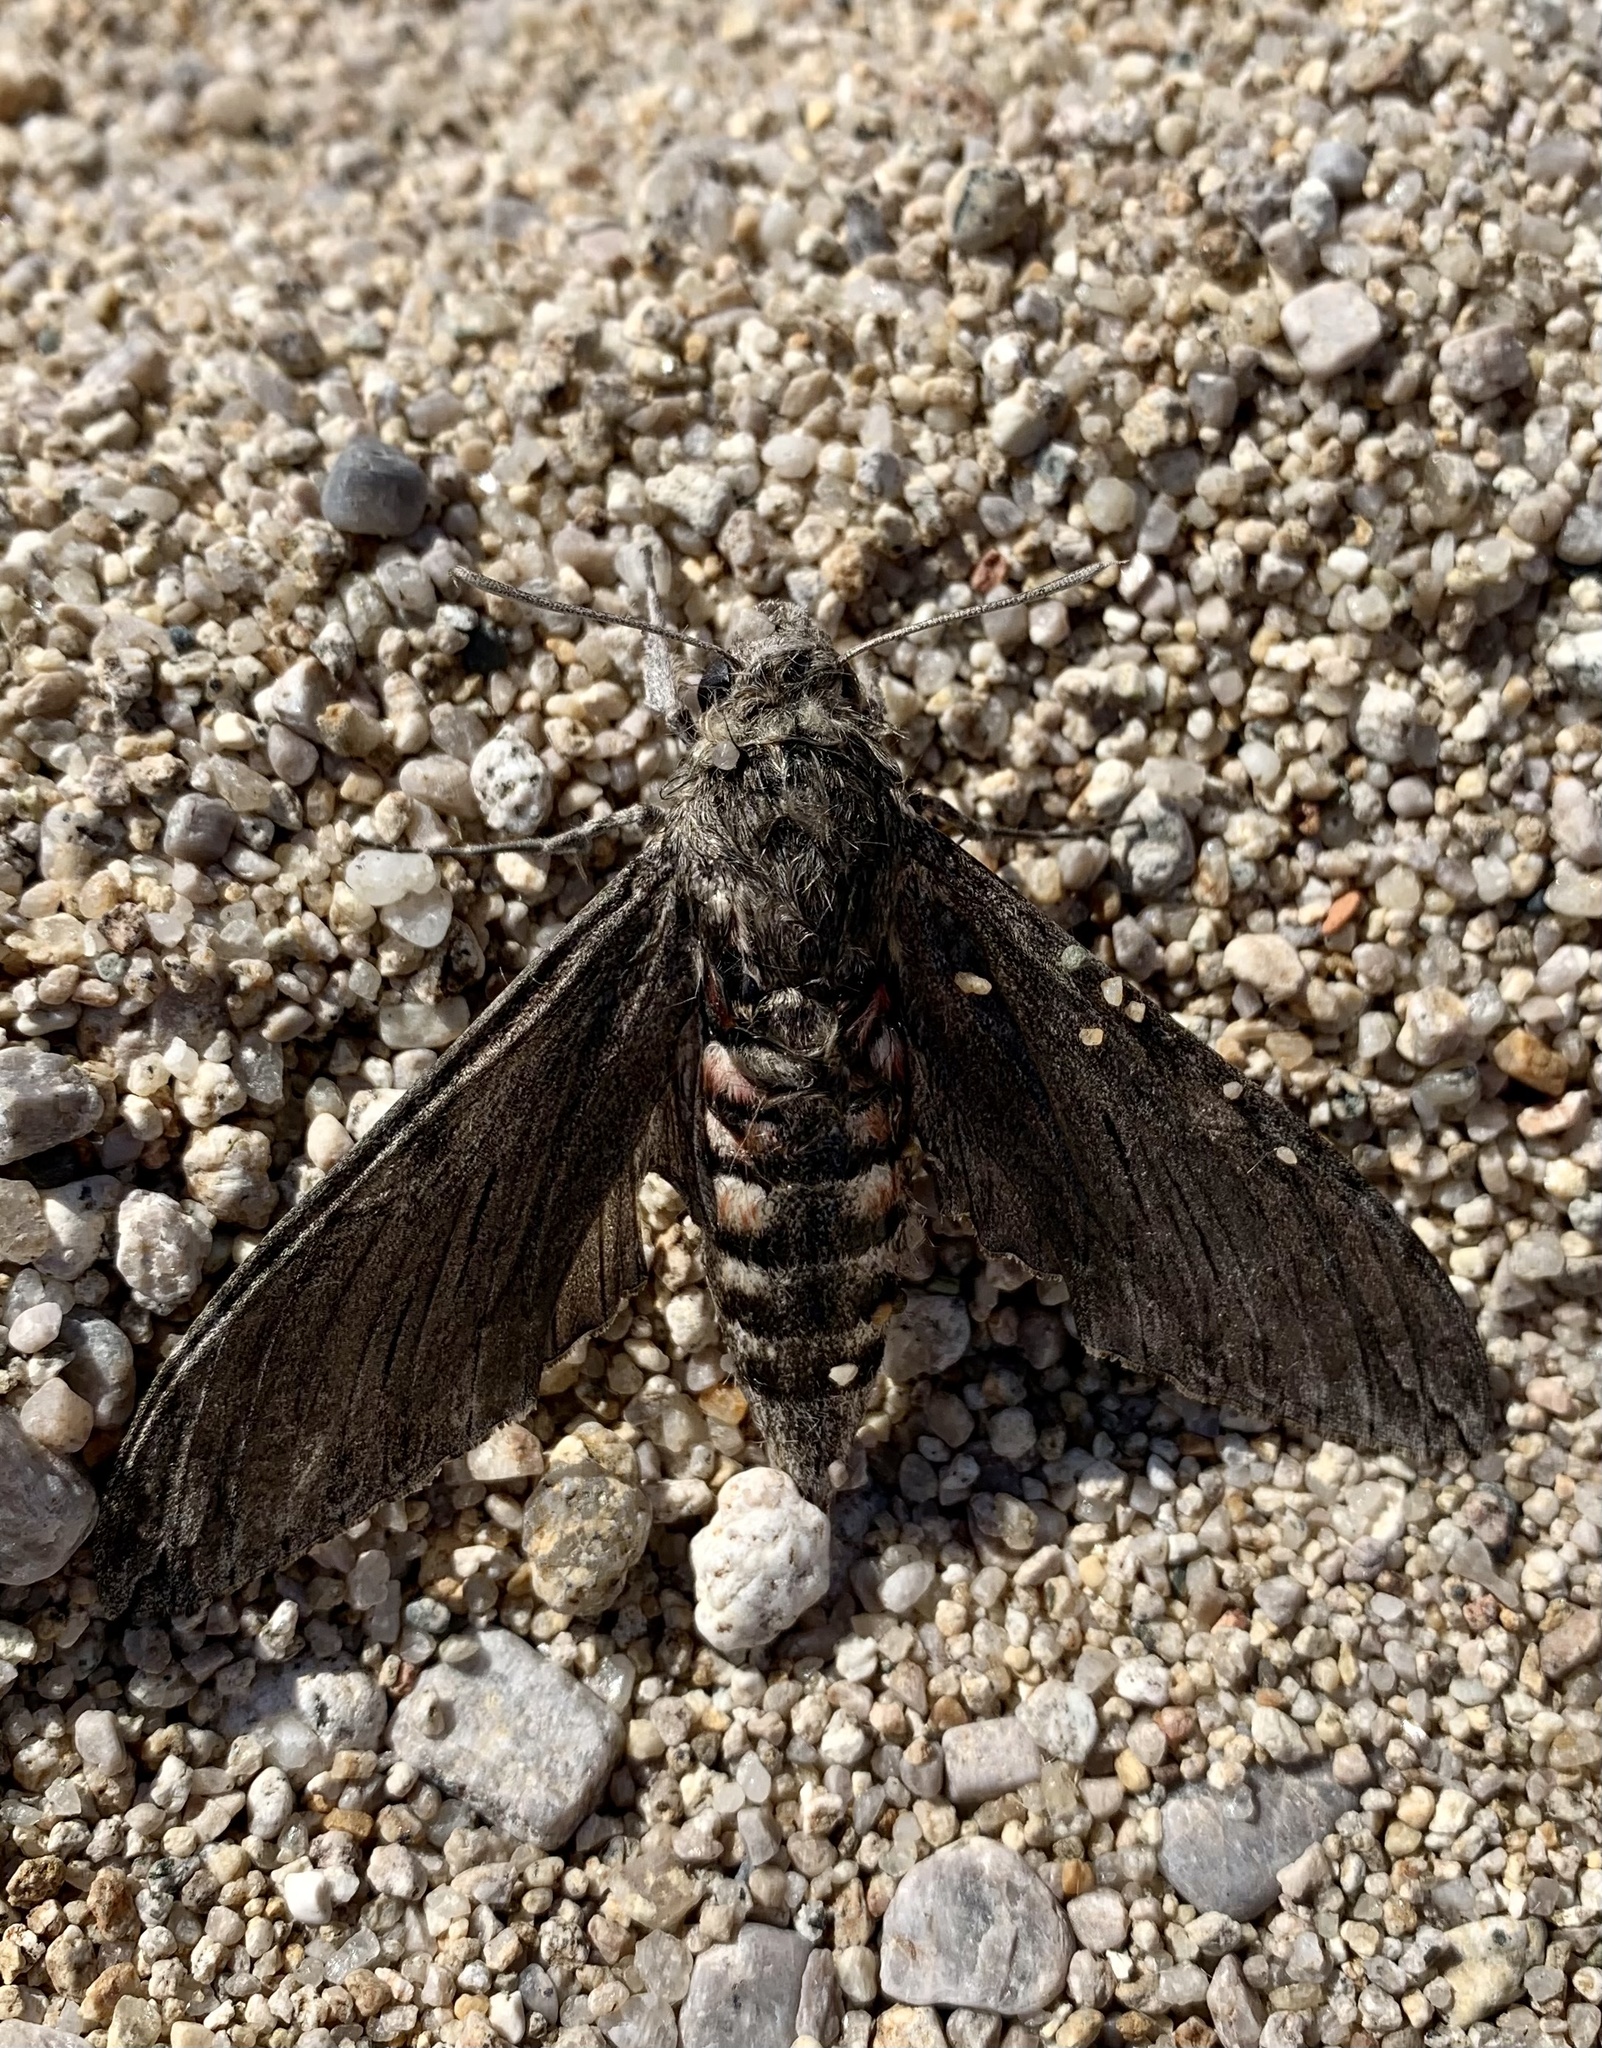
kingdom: Animalia
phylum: Arthropoda
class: Insecta
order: Lepidoptera
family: Sphingidae
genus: Agrius
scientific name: Agrius convolvuli
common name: Convolvulus hawkmoth
